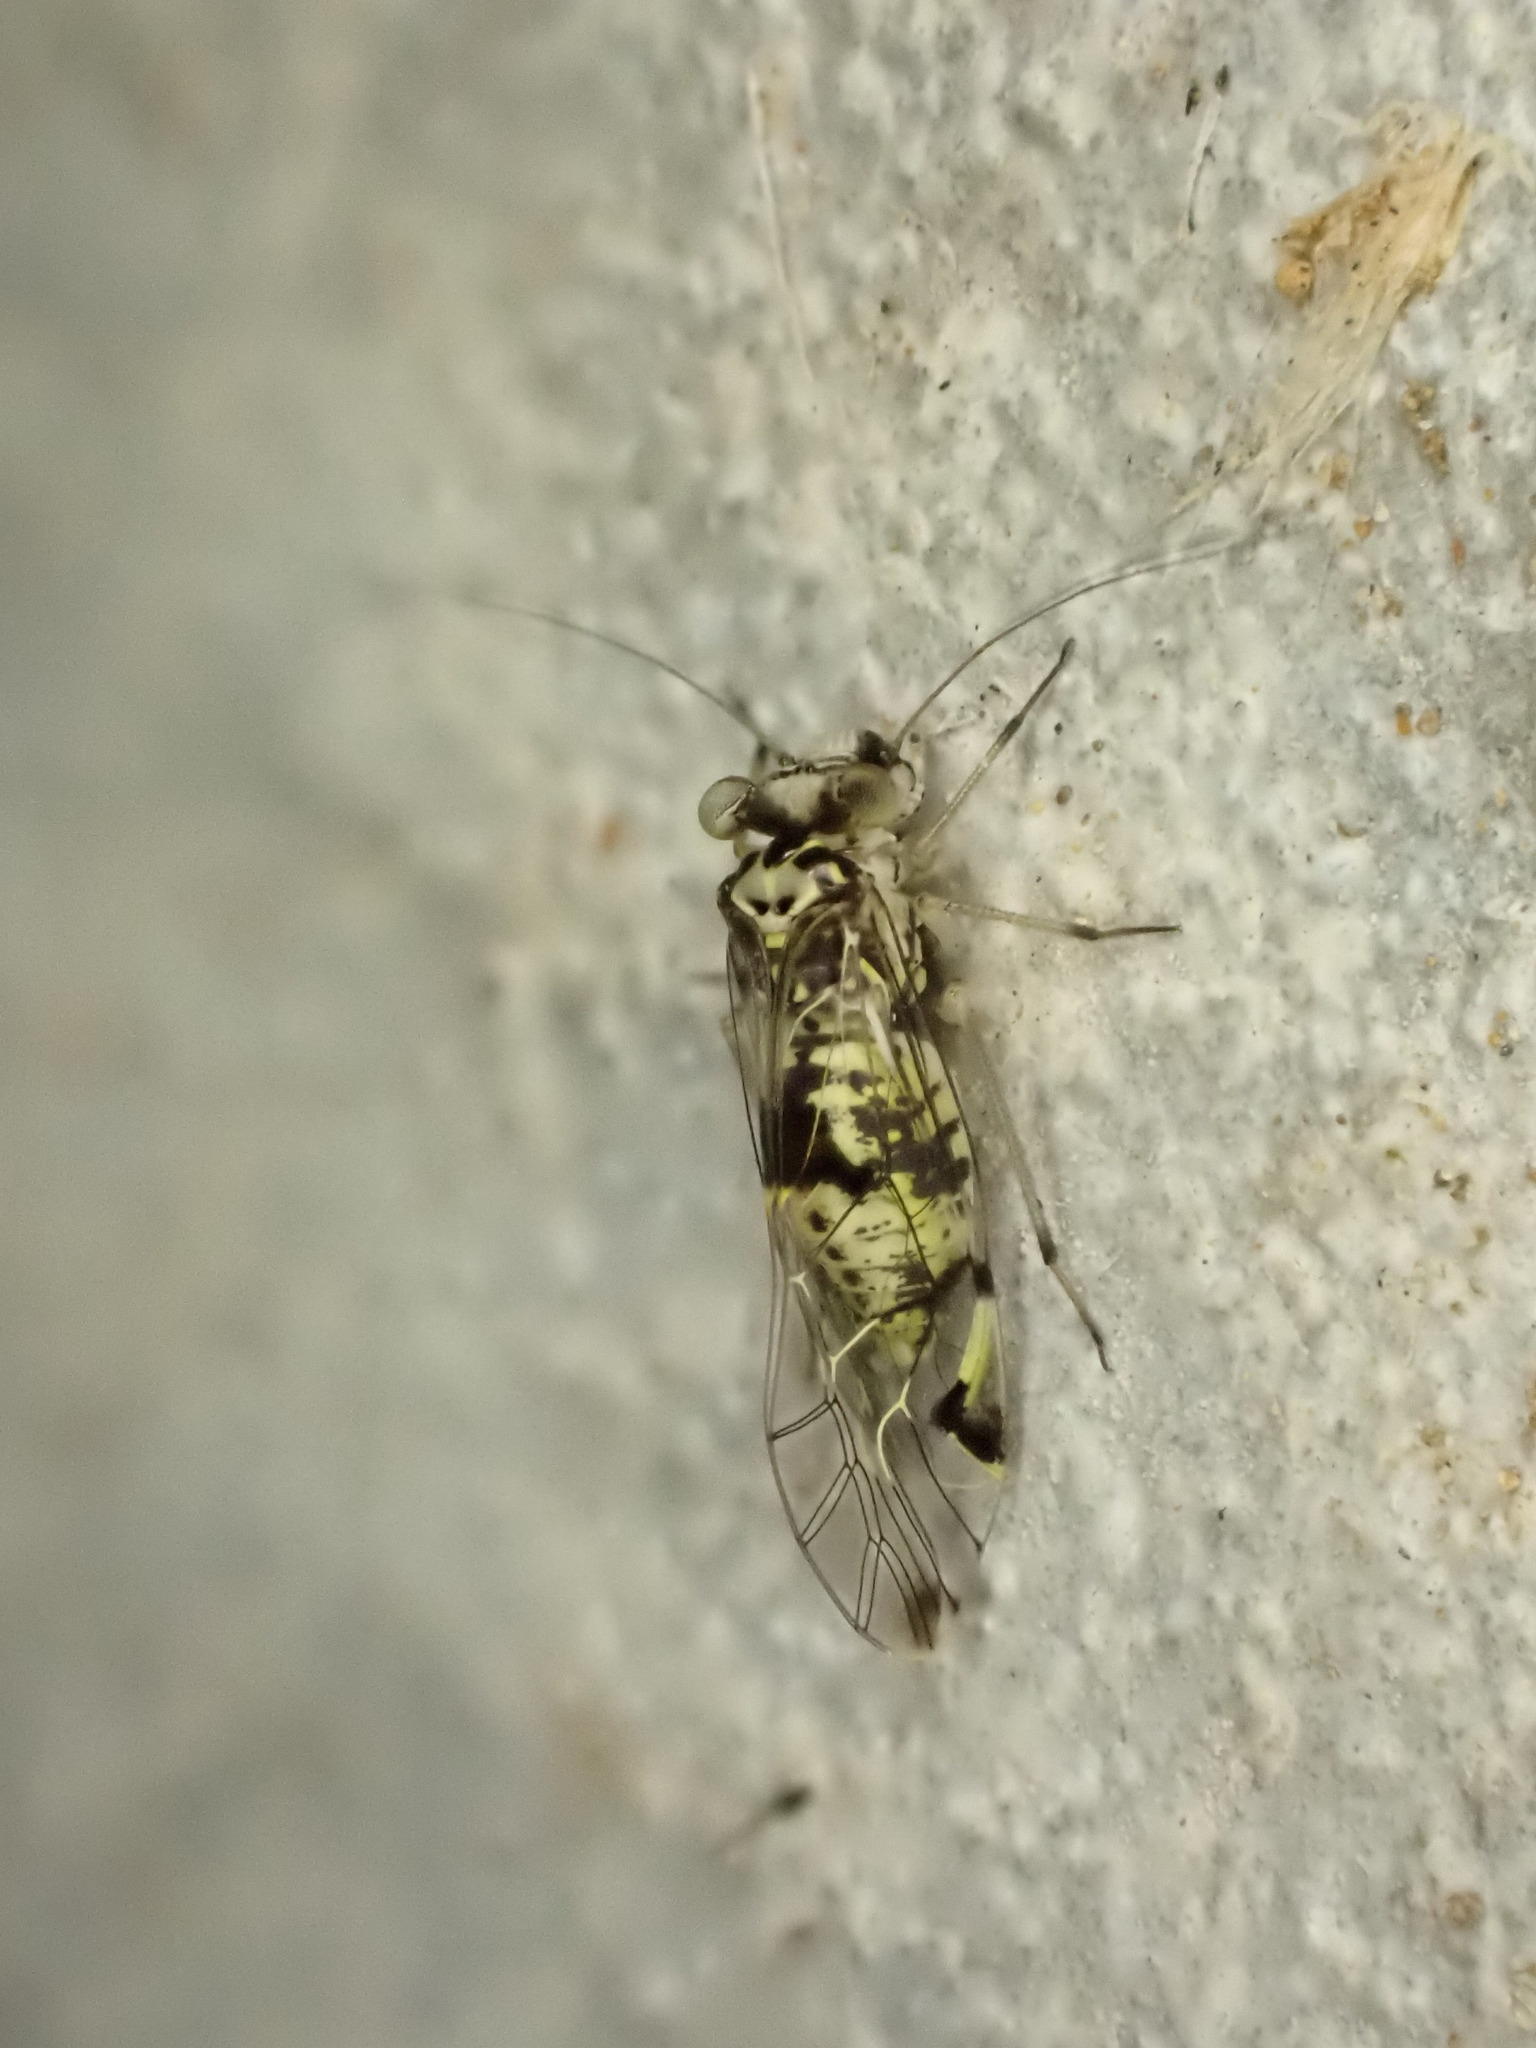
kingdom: Animalia
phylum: Arthropoda
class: Insecta
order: Psocodea
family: Psocidae
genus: Blaste
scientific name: Blaste tillyardi
